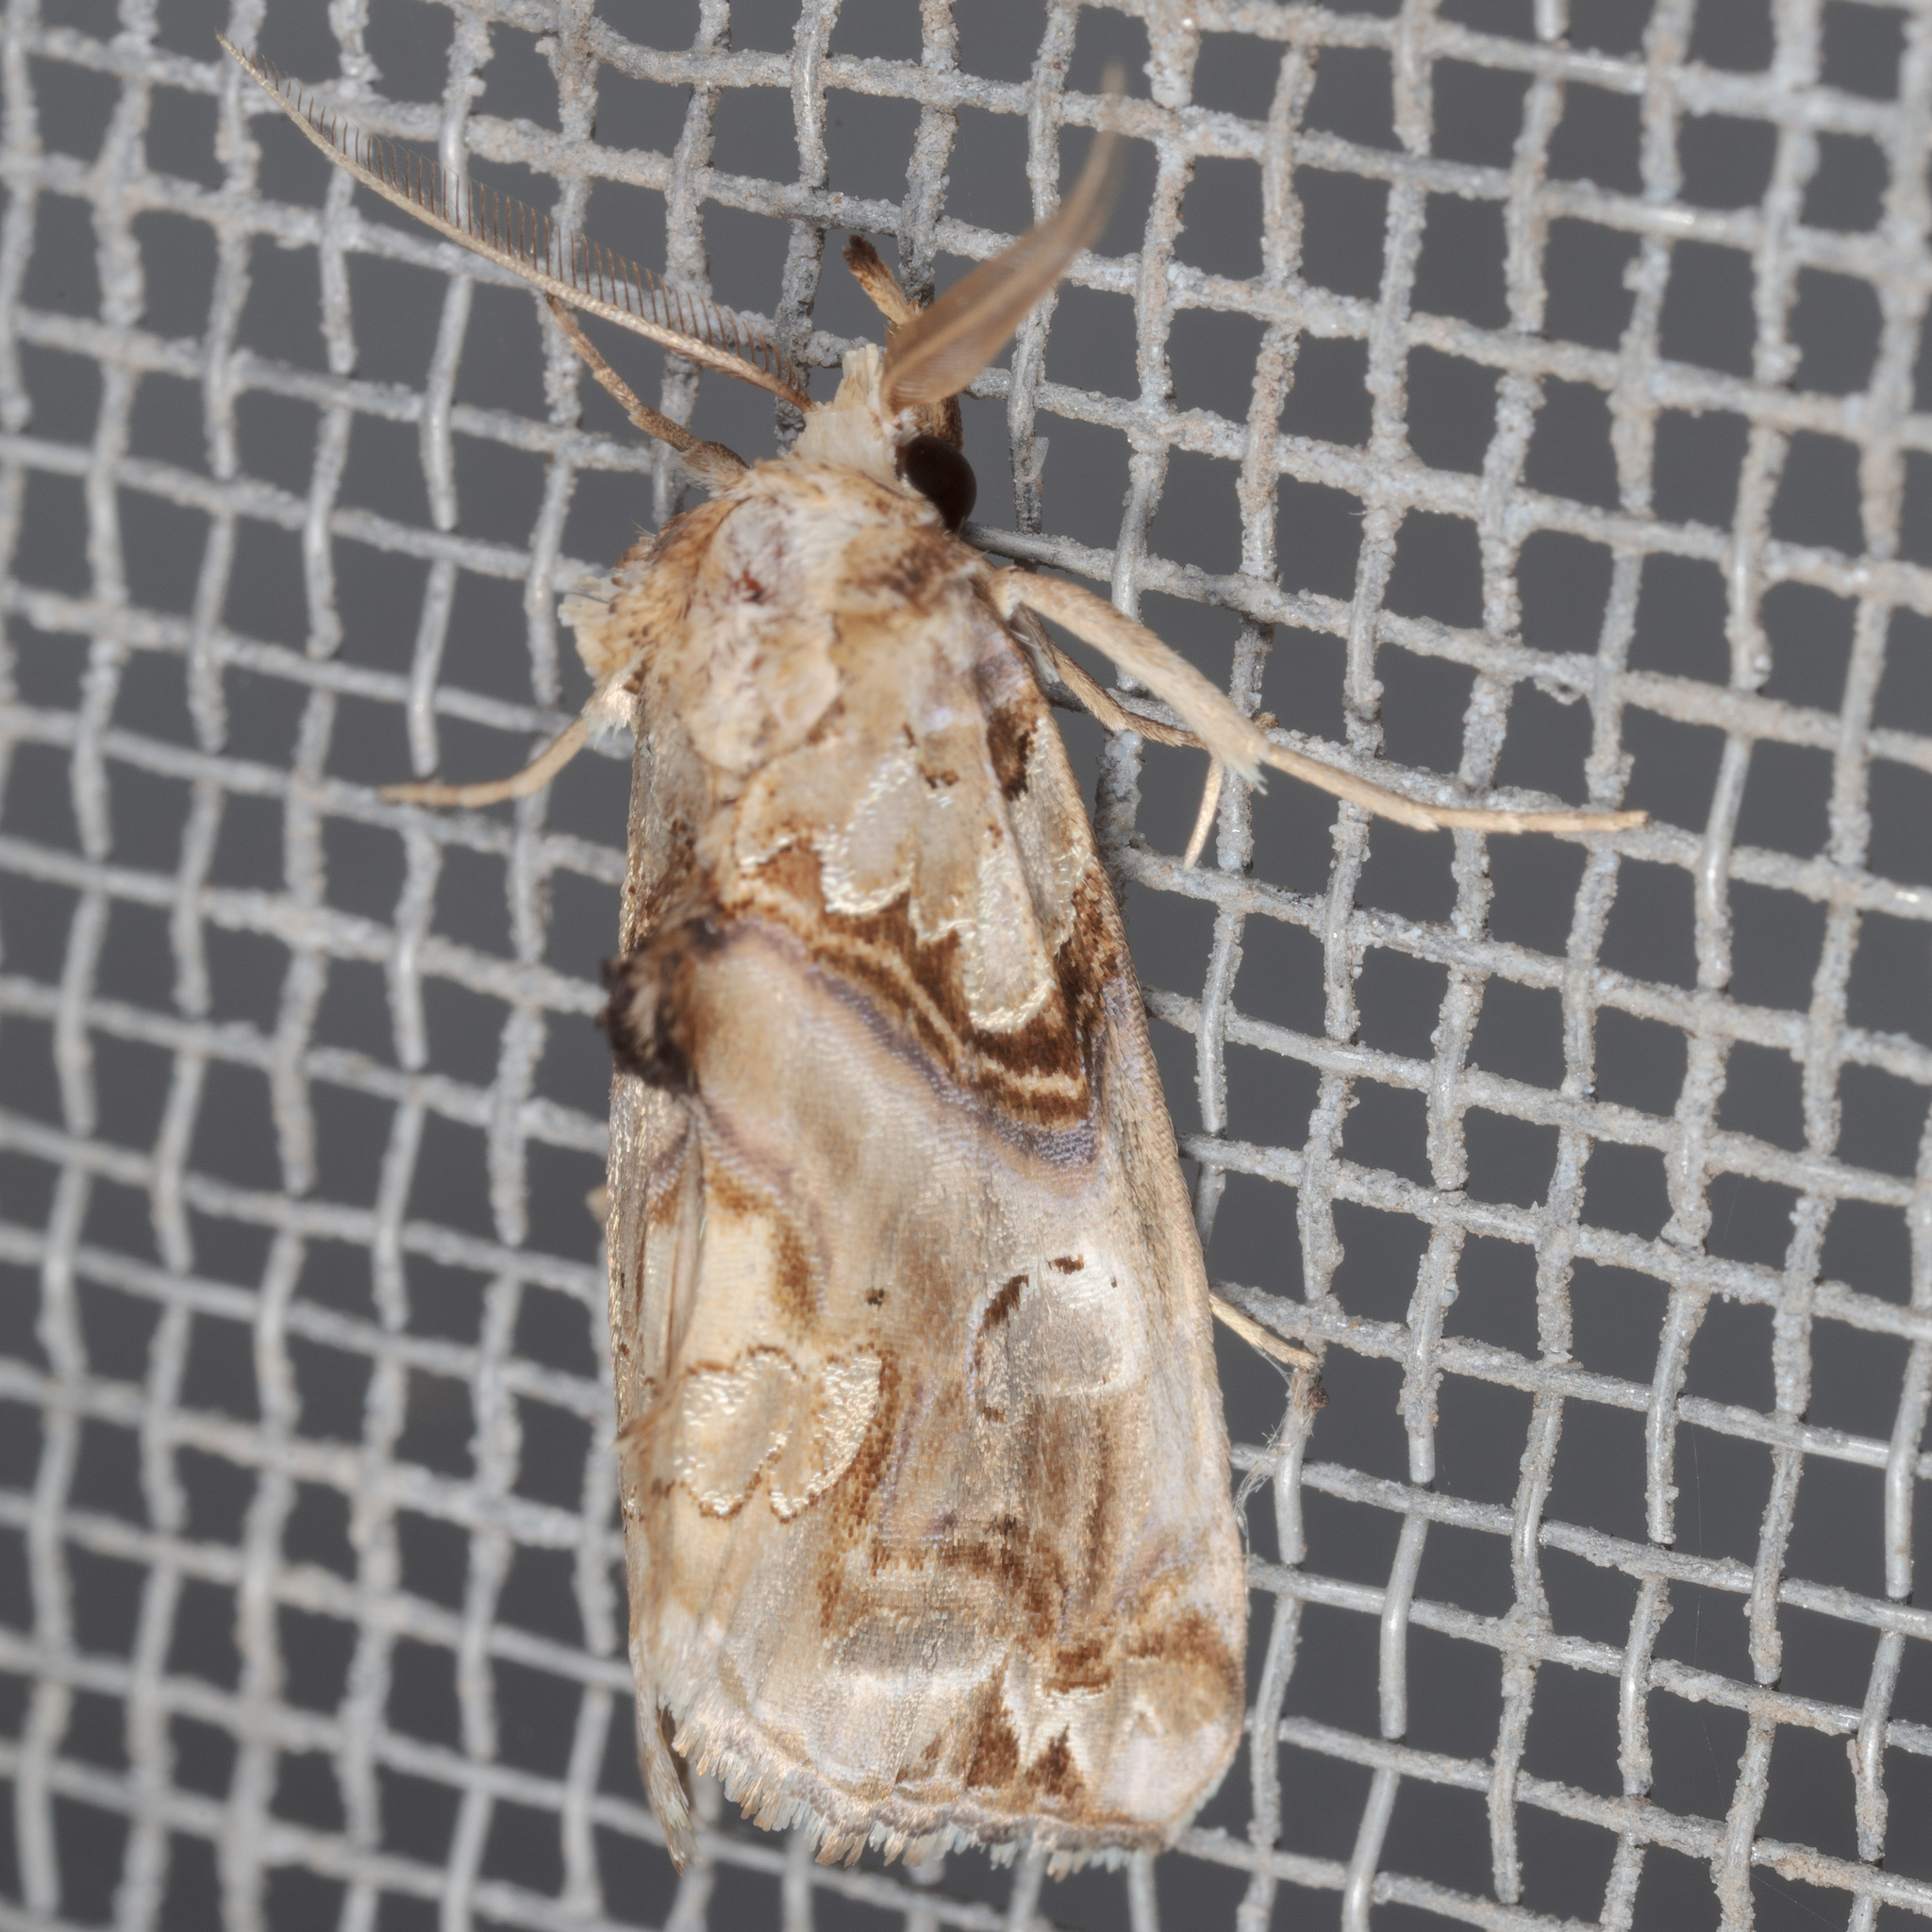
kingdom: Animalia
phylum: Arthropoda
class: Insecta
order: Lepidoptera
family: Erebidae
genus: Plusiodonta
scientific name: Plusiodonta compressipalpis
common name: Moonseed moth
